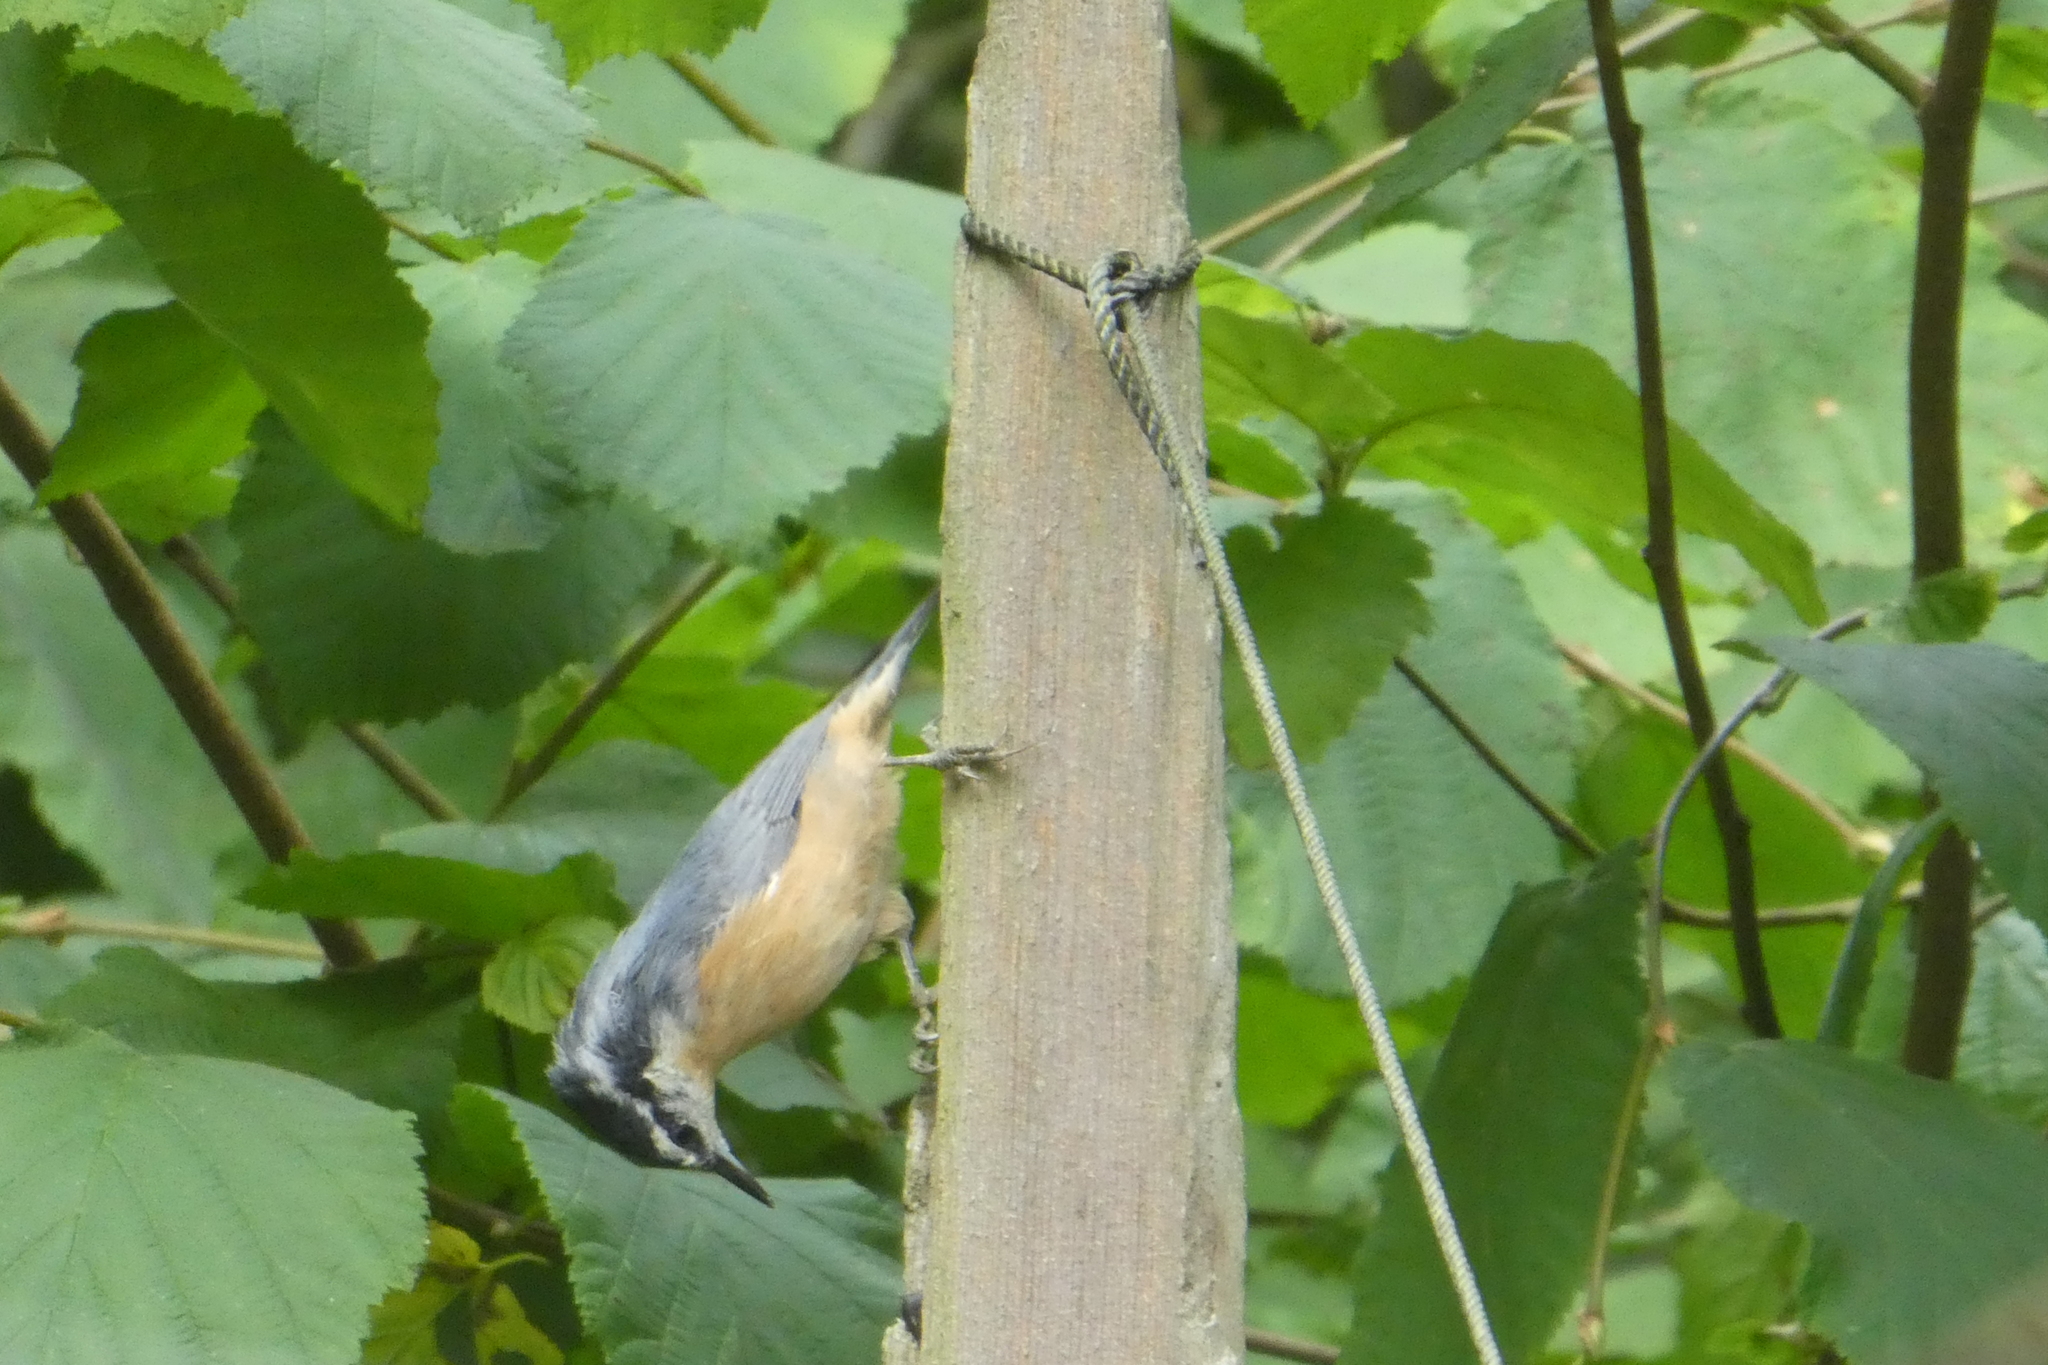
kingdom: Animalia
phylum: Chordata
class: Aves
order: Passeriformes
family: Sittidae
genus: Sitta
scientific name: Sitta canadensis
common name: Red-breasted nuthatch
